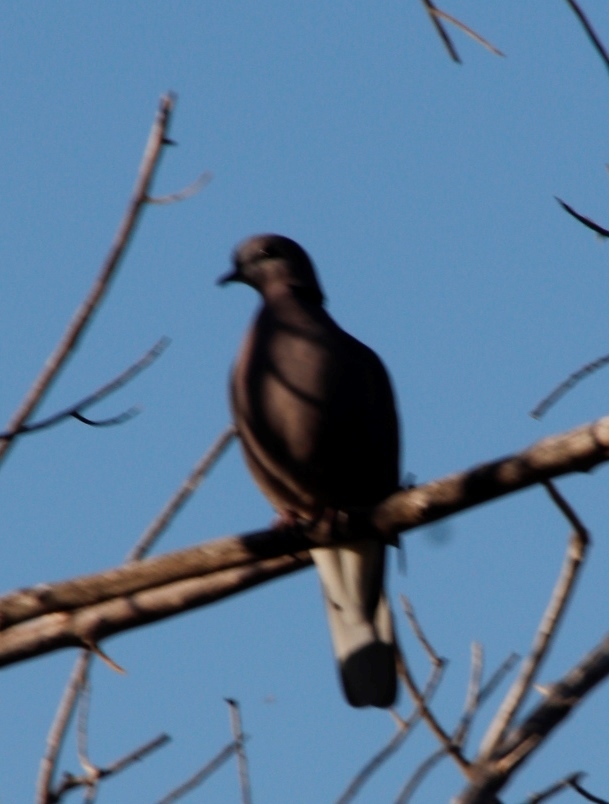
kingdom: Animalia
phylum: Chordata
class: Aves
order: Columbiformes
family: Columbidae
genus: Streptopelia
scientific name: Streptopelia semitorquata
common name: Red-eyed dove
